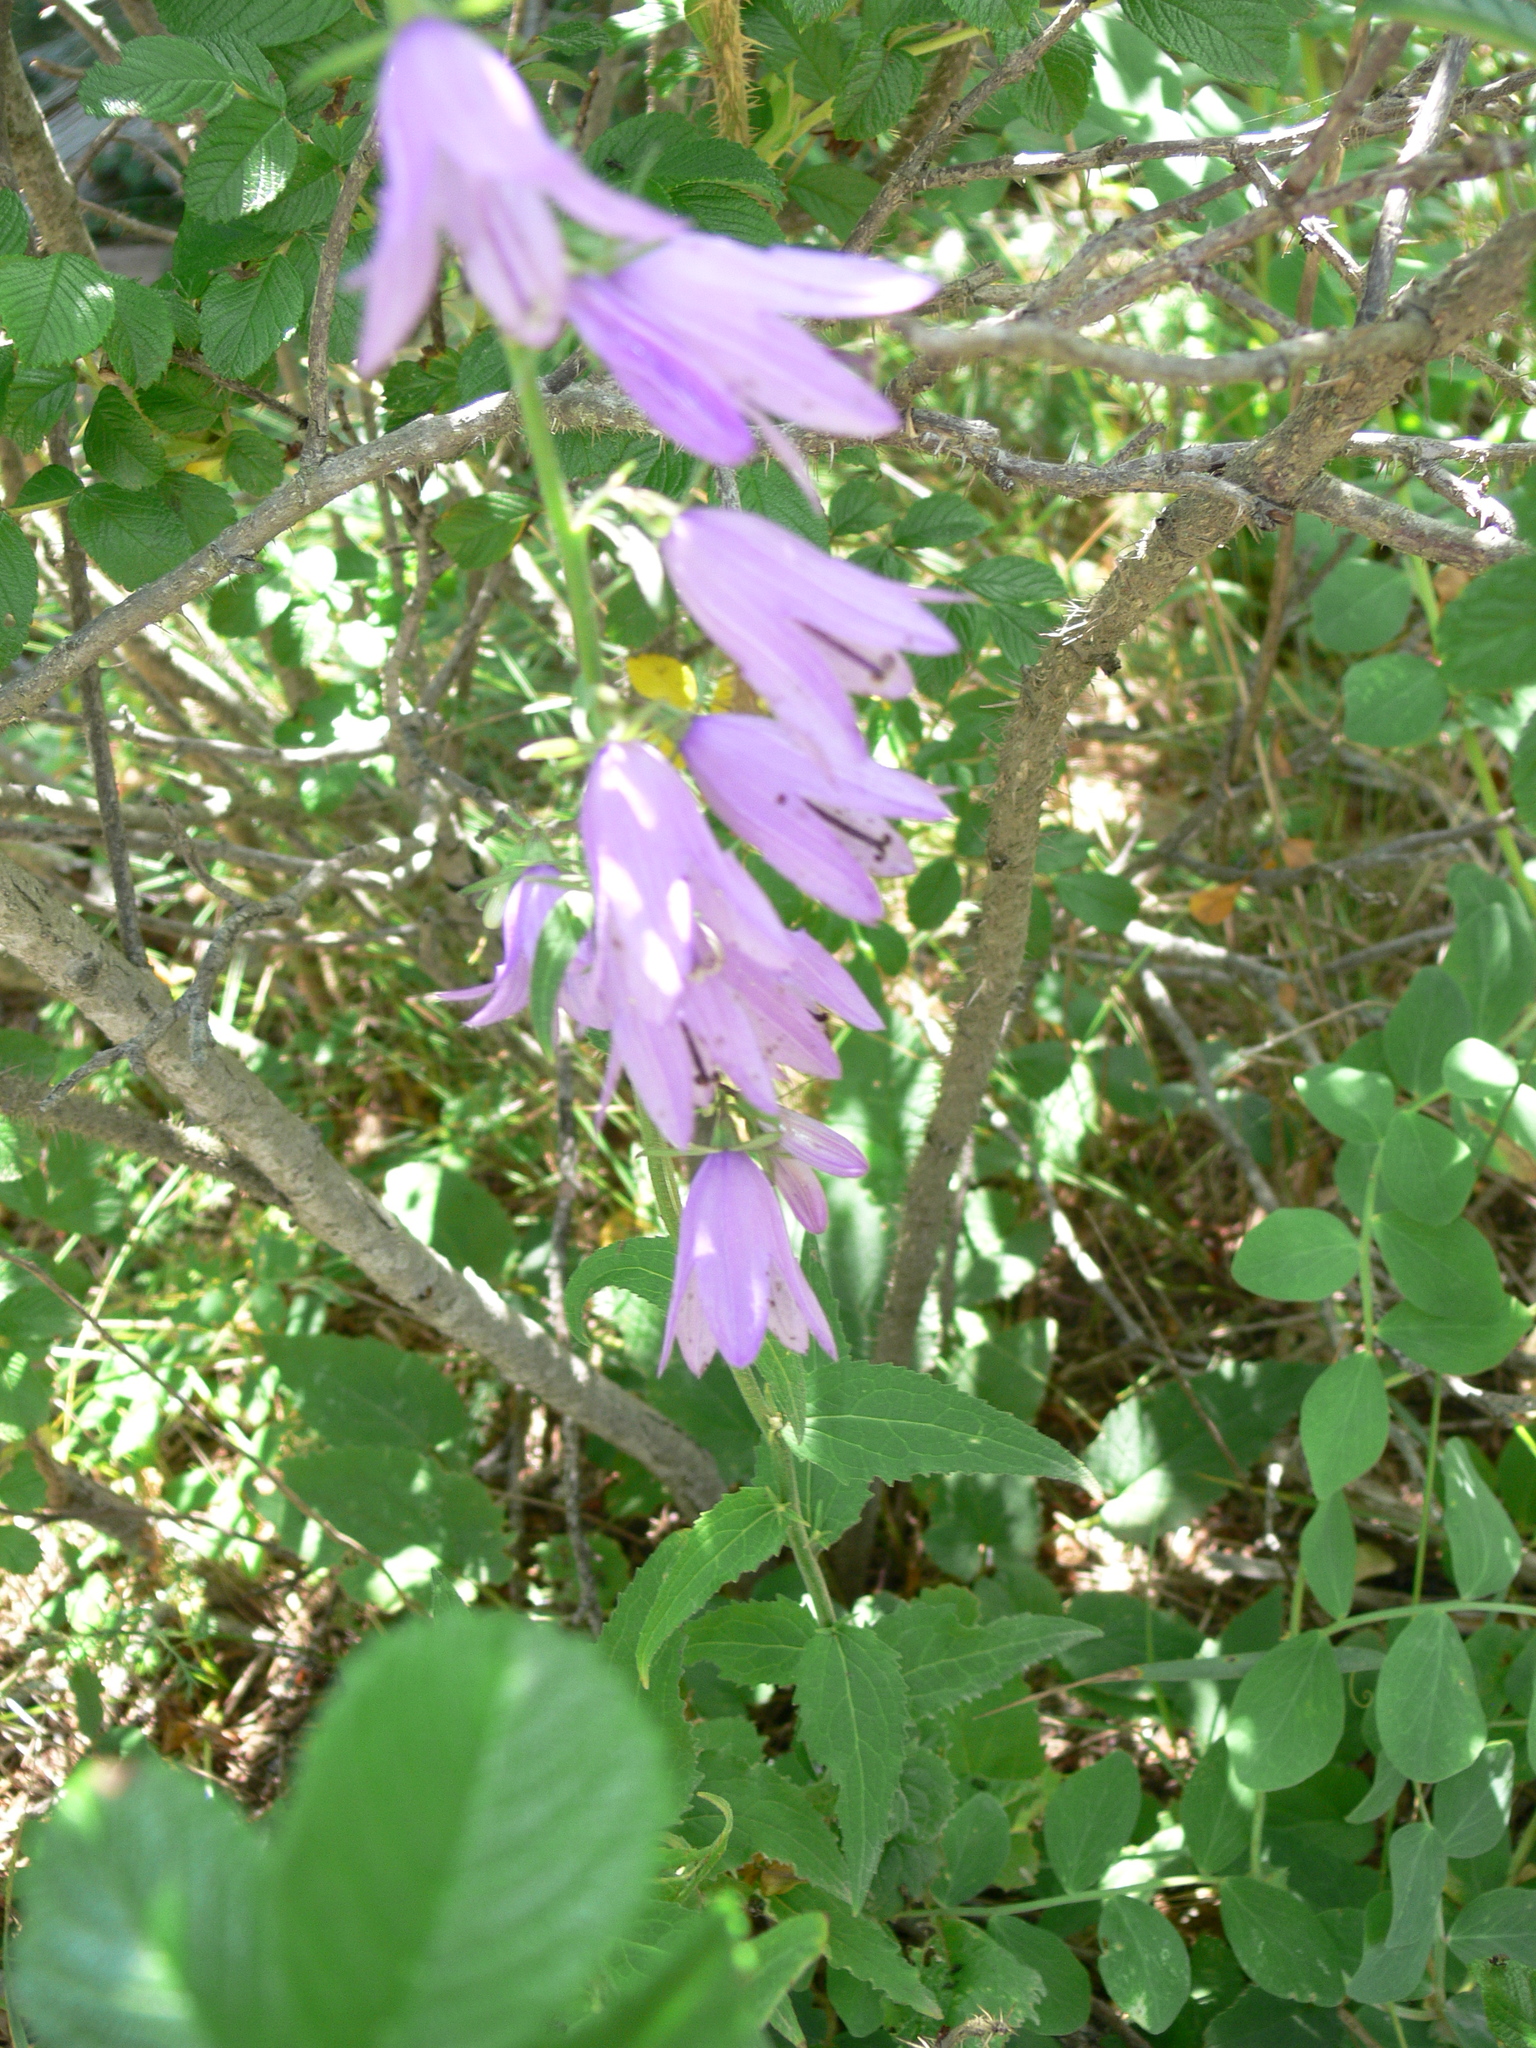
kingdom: Plantae
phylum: Tracheophyta
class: Magnoliopsida
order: Asterales
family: Campanulaceae
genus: Campanula
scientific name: Campanula rapunculoides
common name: Creeping bellflower
